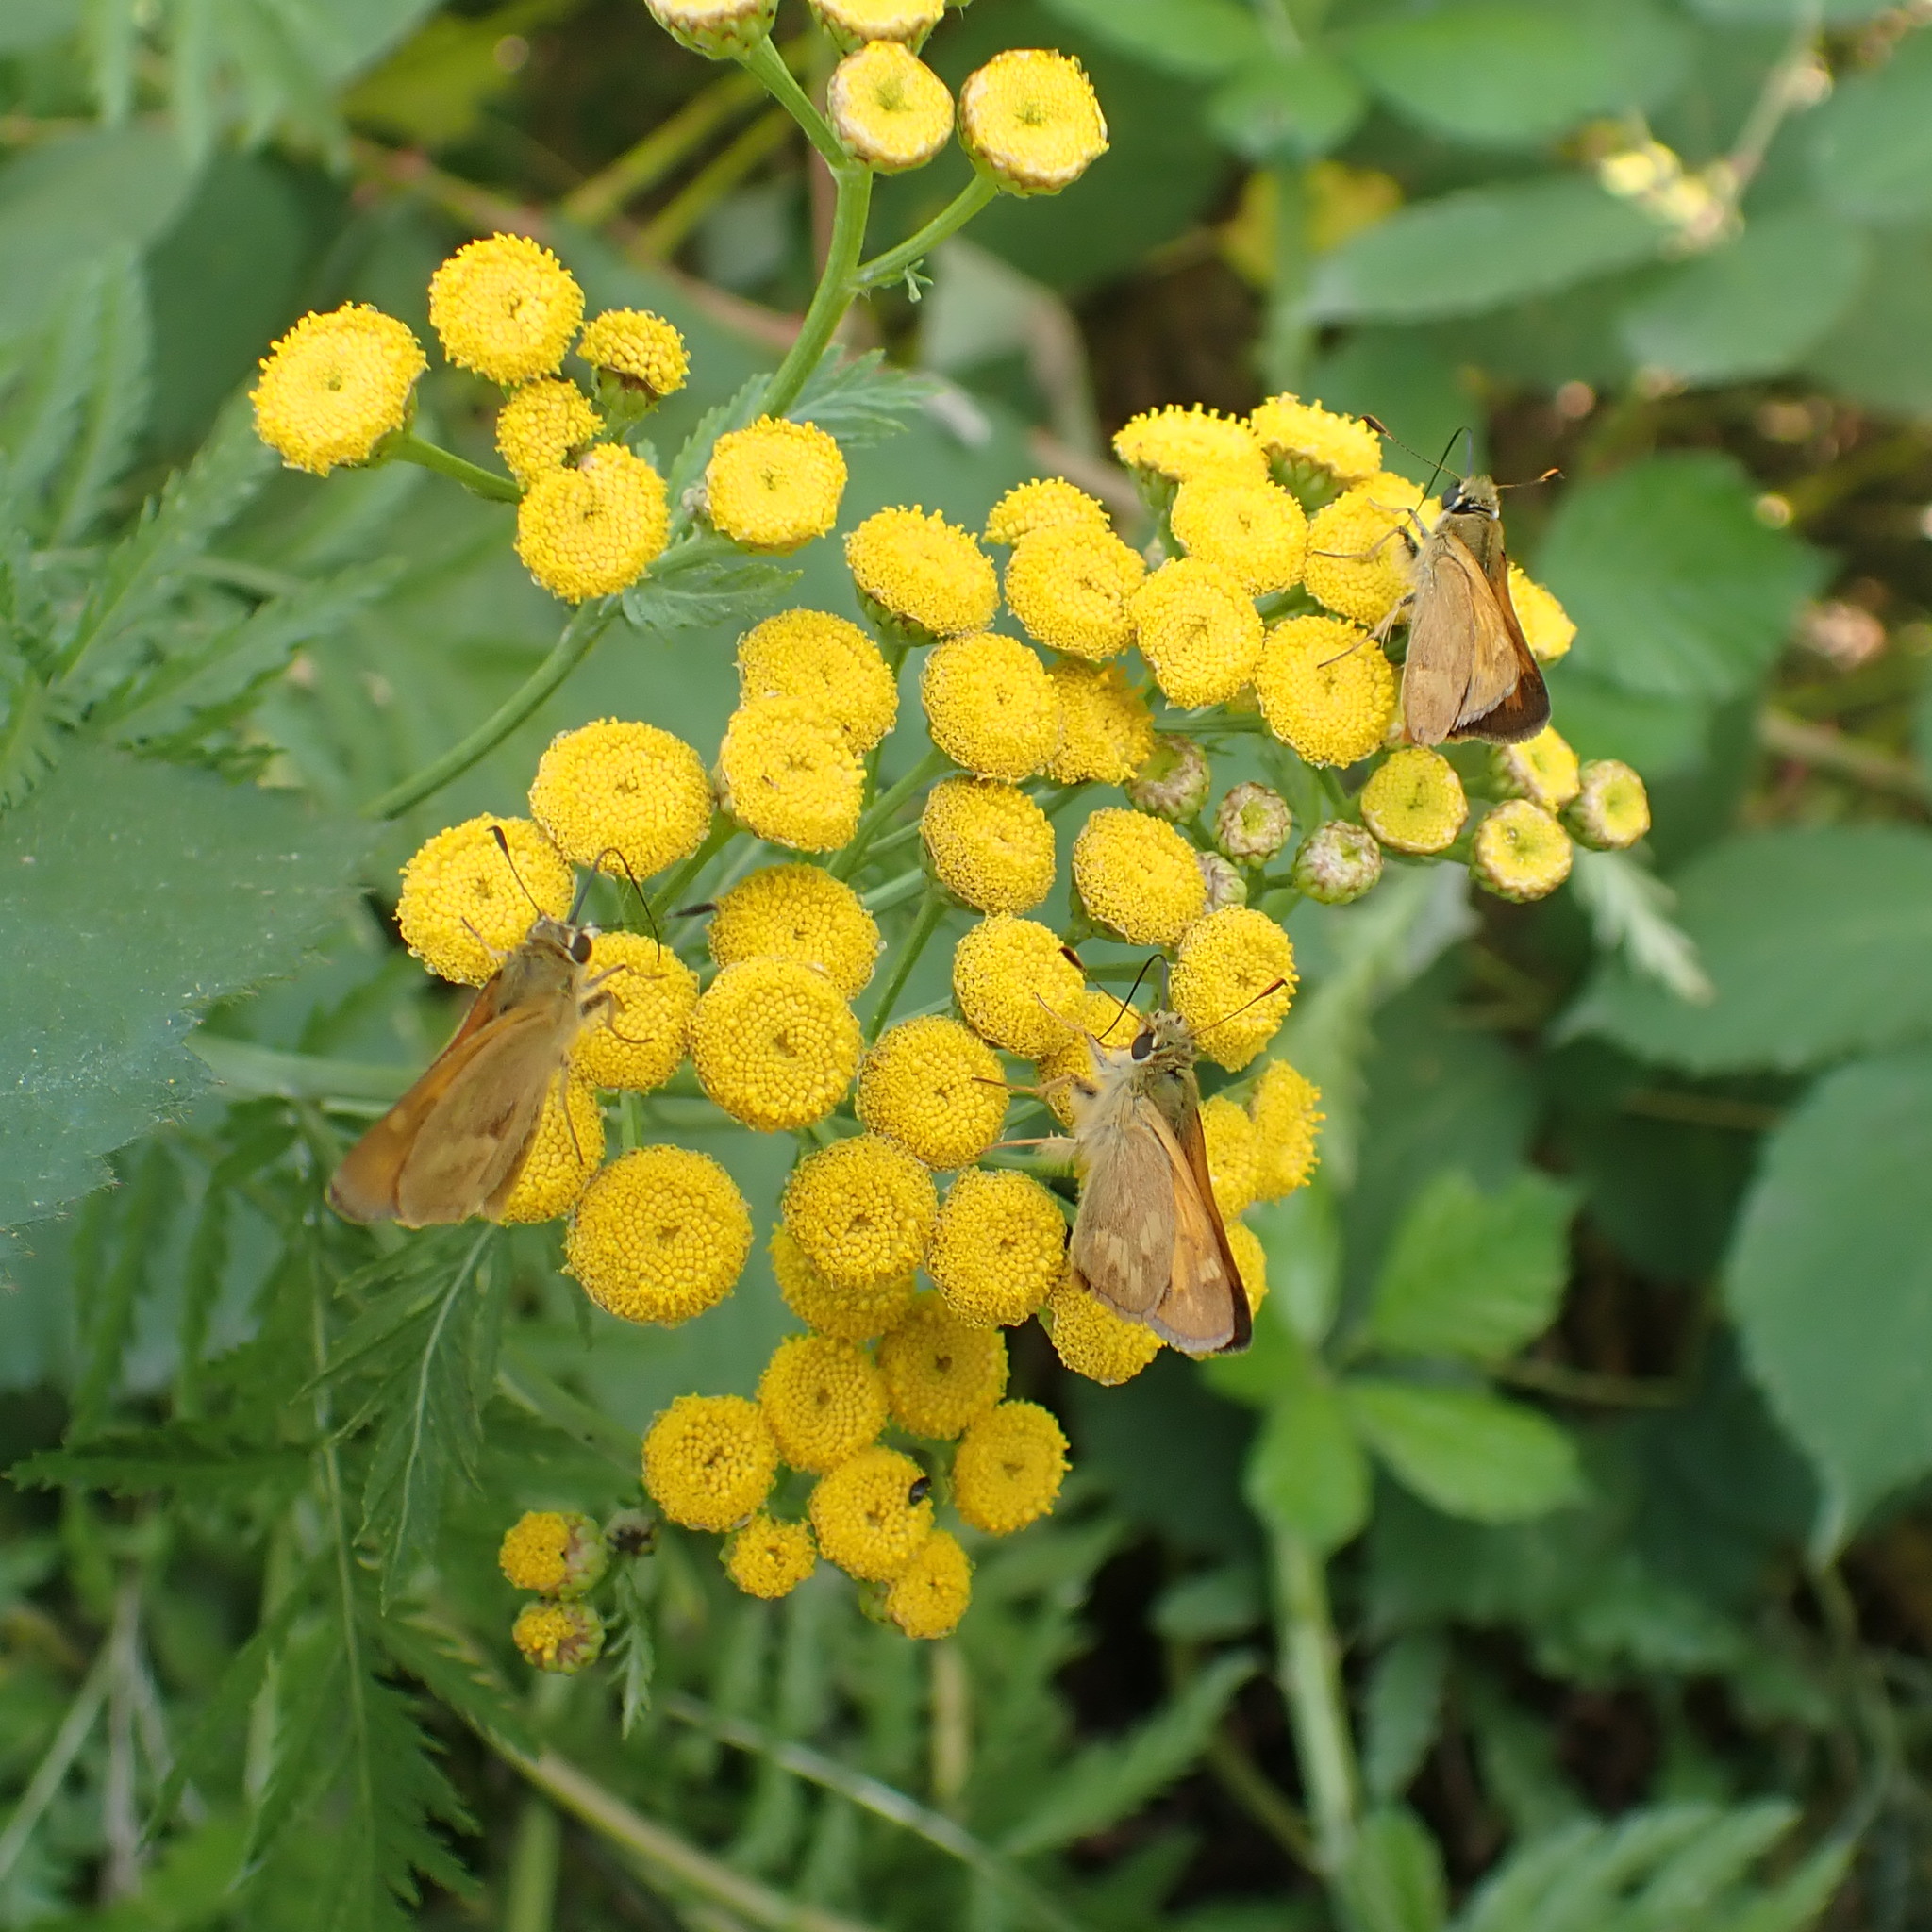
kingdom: Animalia
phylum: Arthropoda
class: Insecta
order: Lepidoptera
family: Hesperiidae
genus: Ochlodes
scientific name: Ochlodes sylvanoides
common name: Woodland skipper
